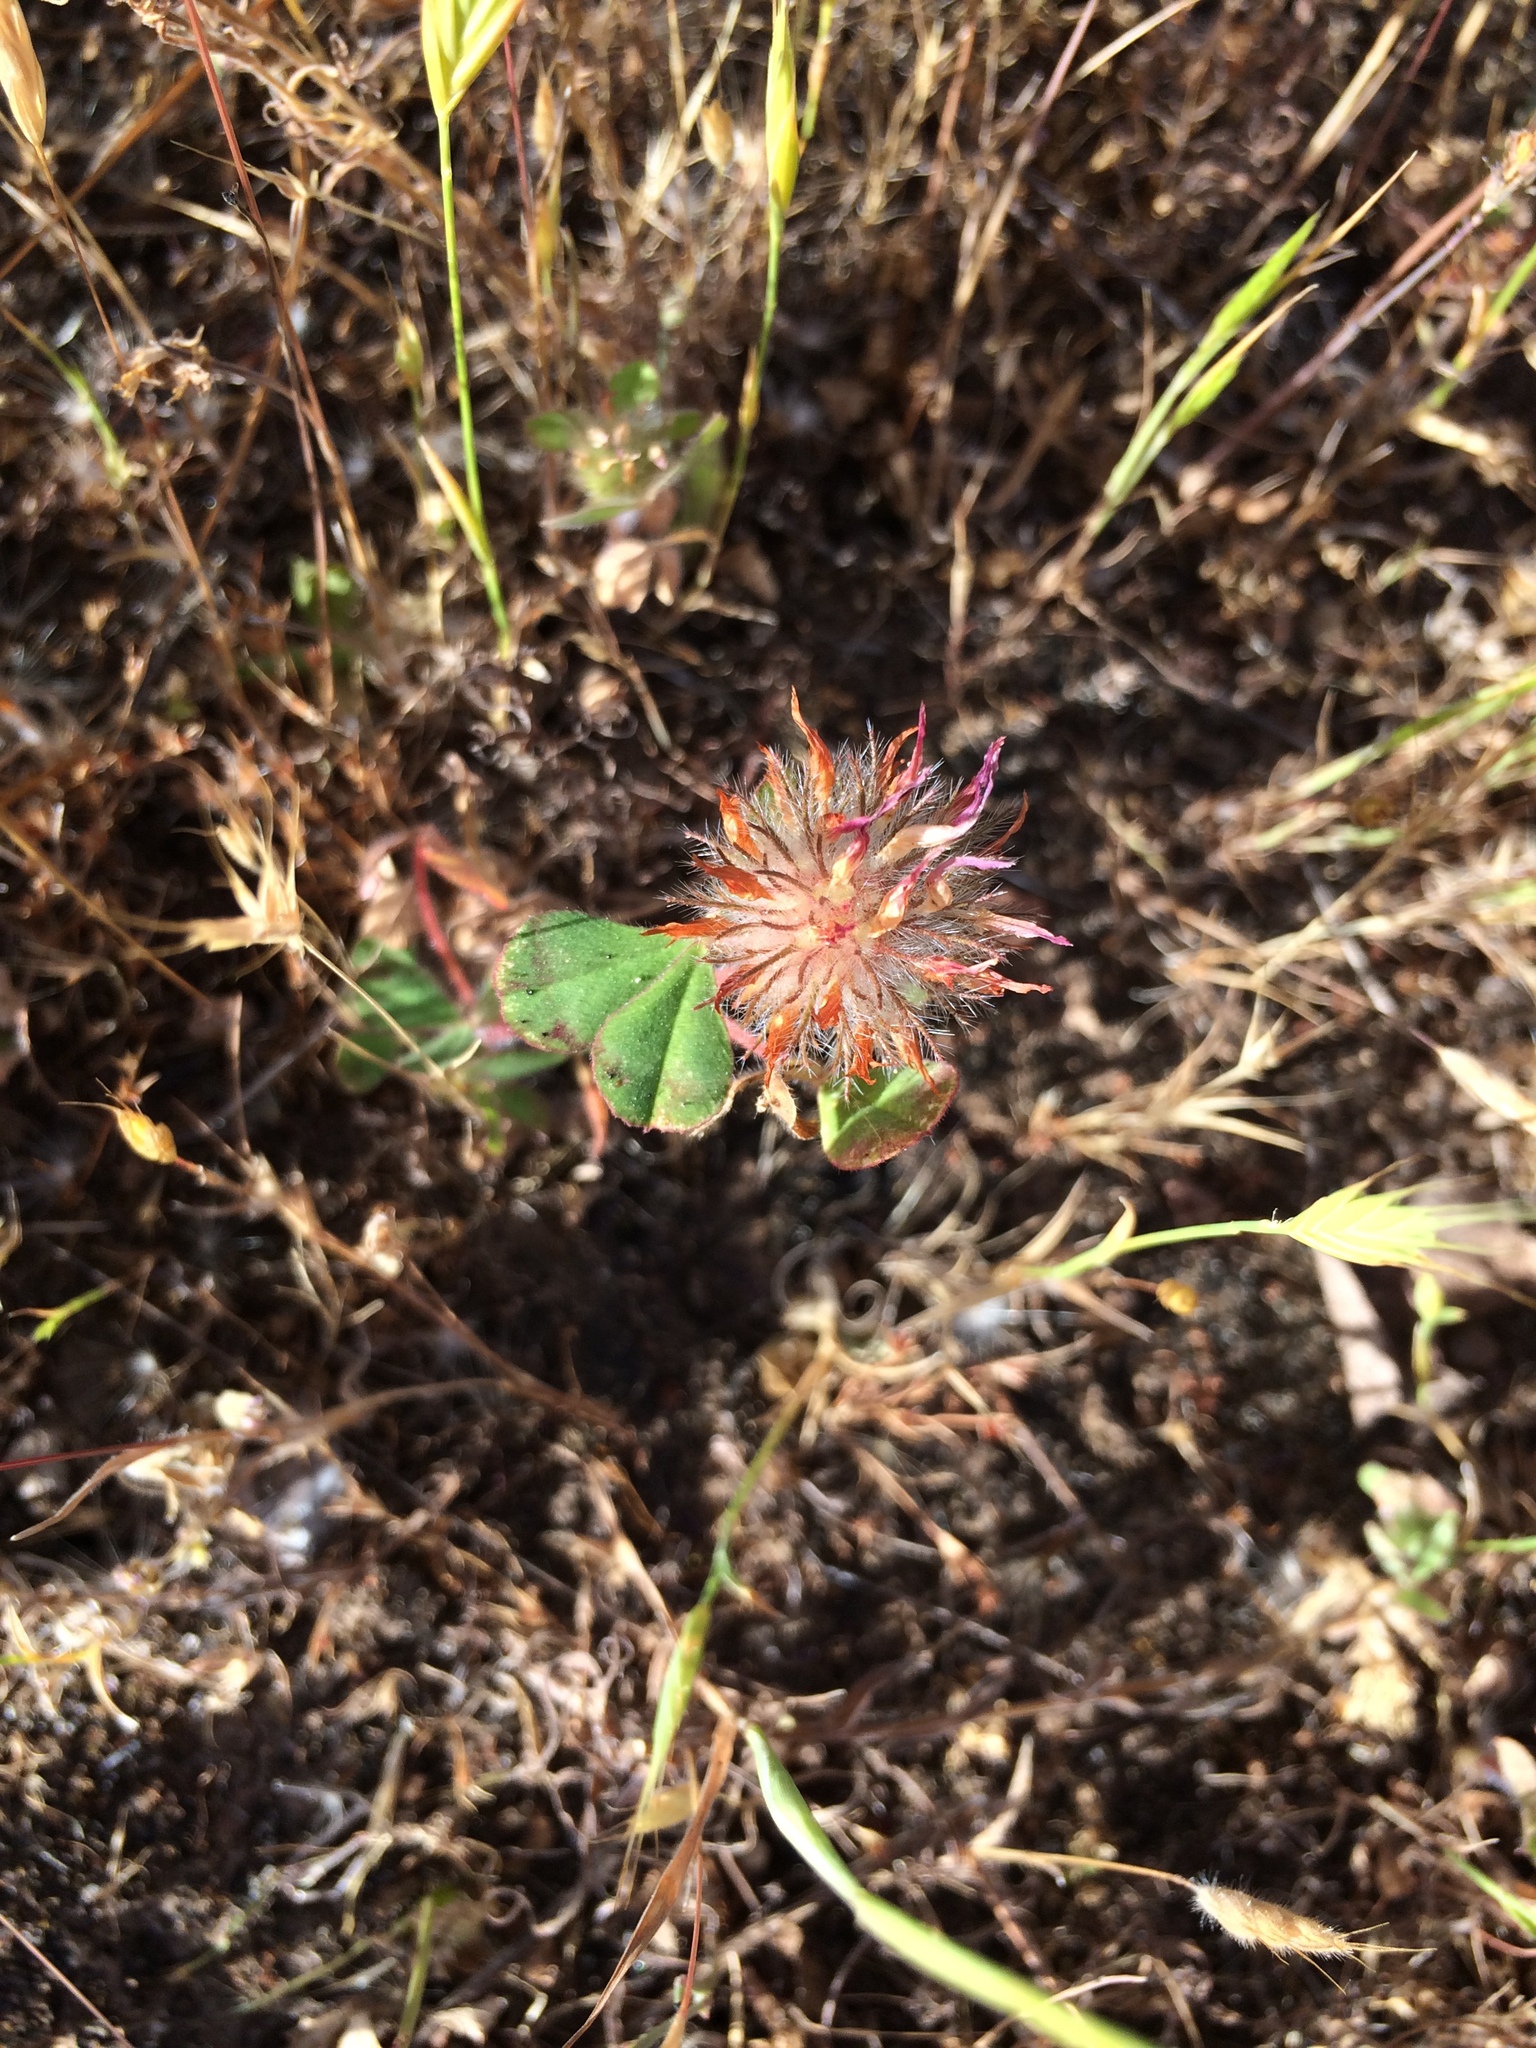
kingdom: Plantae
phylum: Tracheophyta
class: Magnoliopsida
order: Fabales
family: Fabaceae
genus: Trifolium
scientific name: Trifolium hirtum
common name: Rose clover
